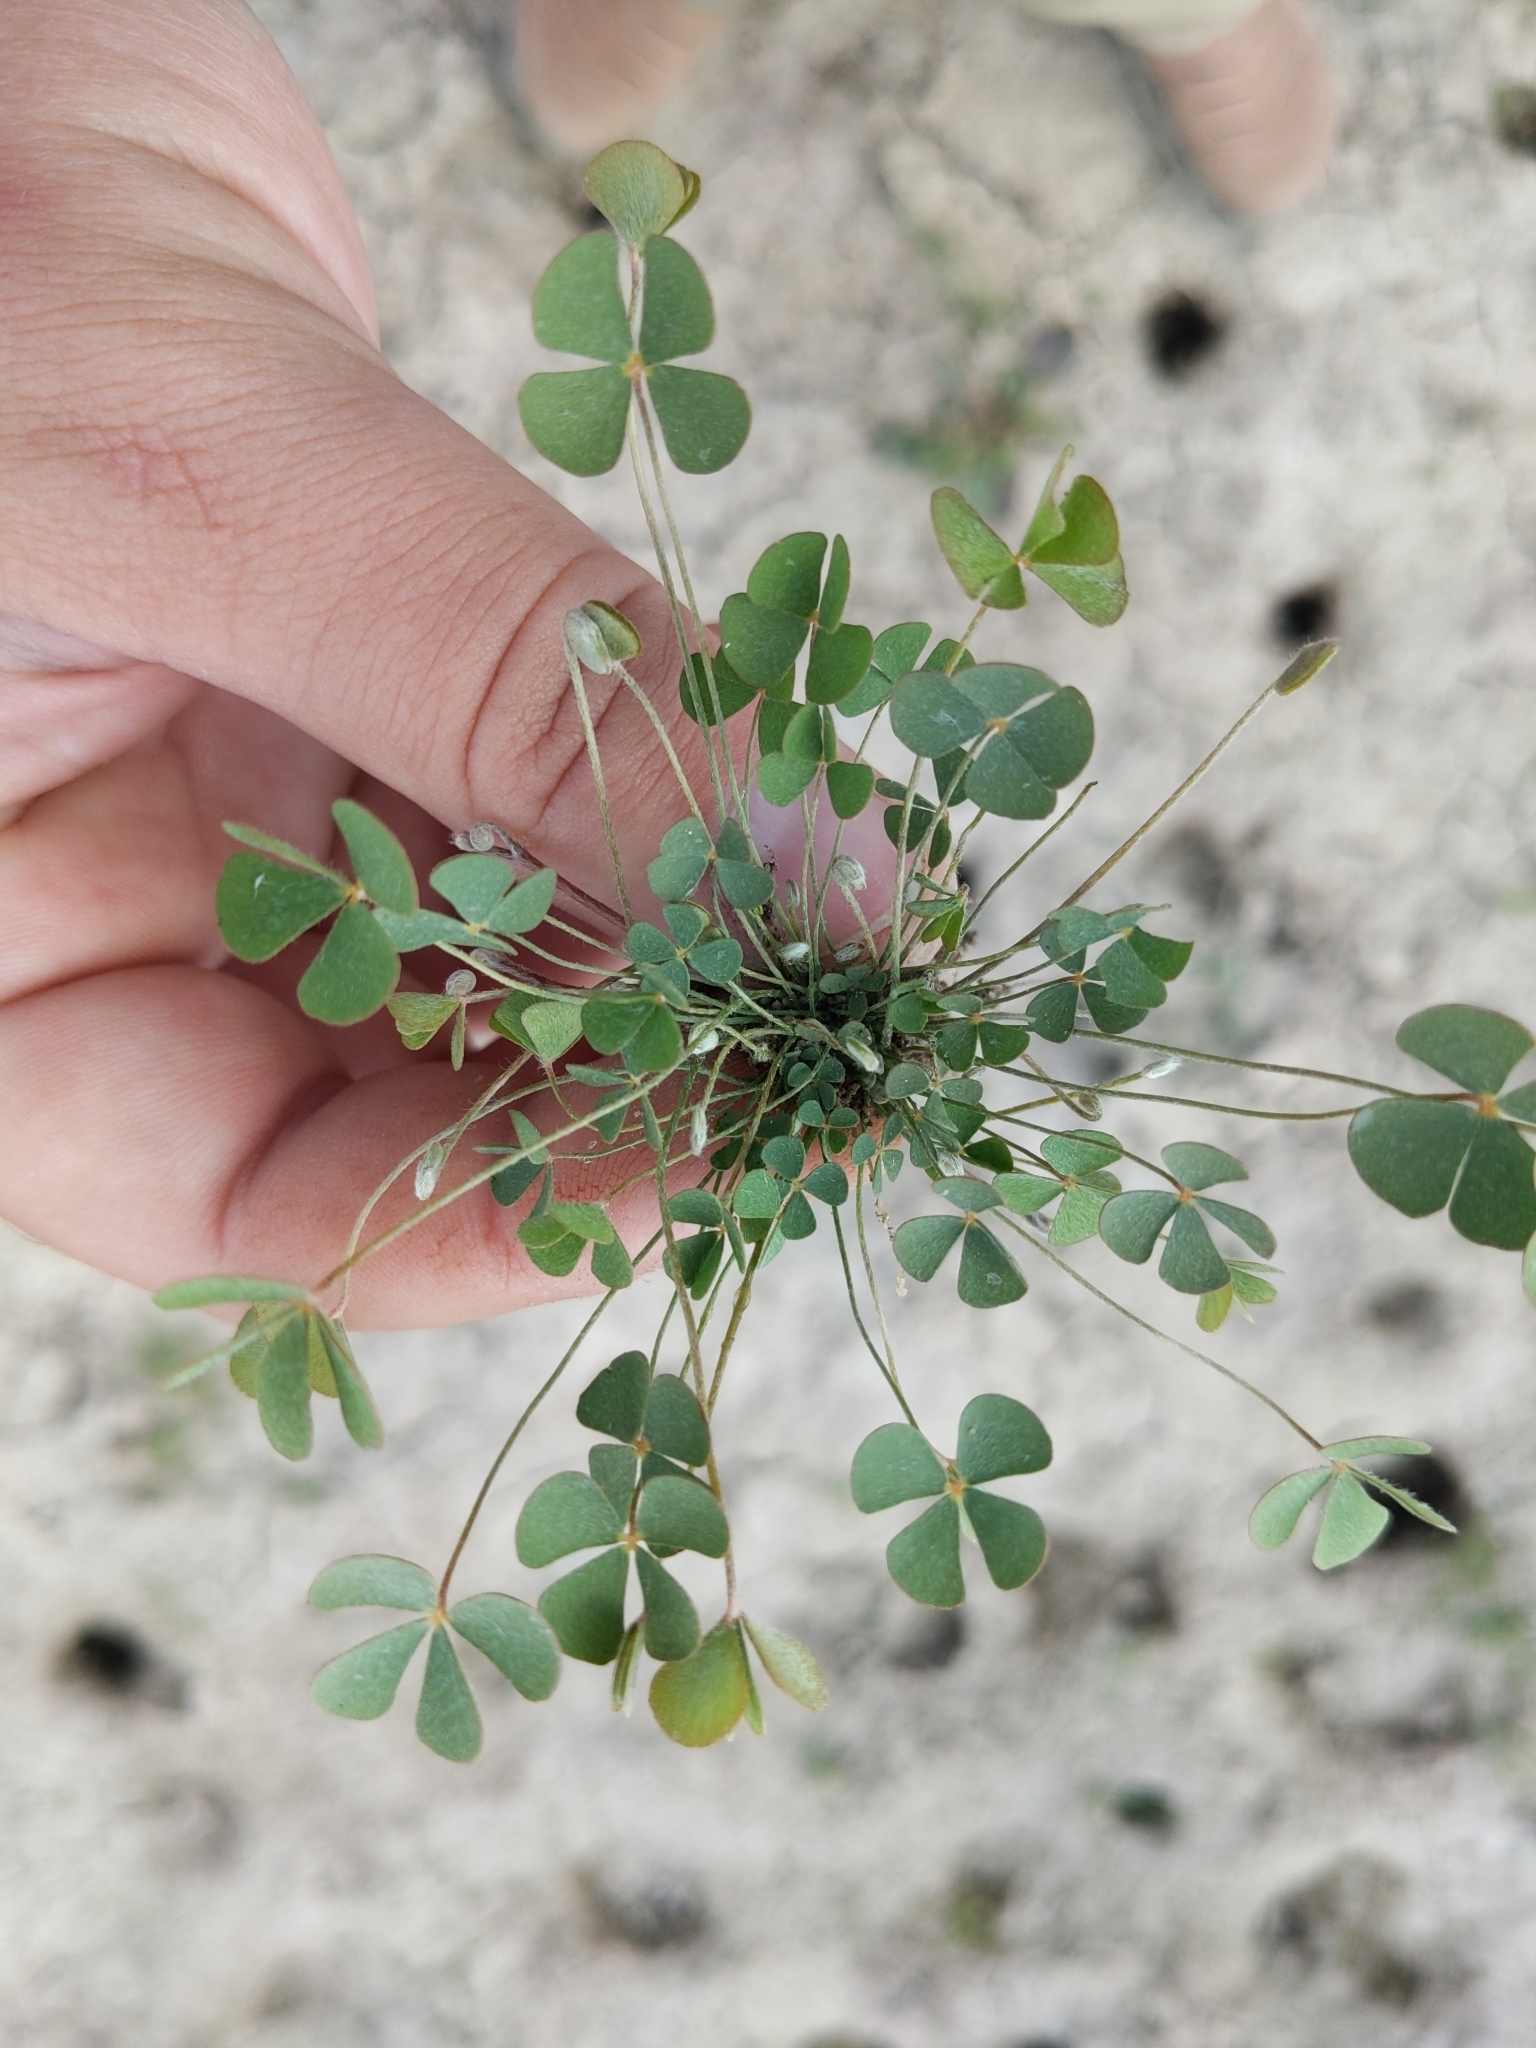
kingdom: Plantae
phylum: Tracheophyta
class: Polypodiopsida
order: Salviniales
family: Marsileaceae
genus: Marsilea
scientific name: Marsilea vestita
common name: Hooked-pepperwort
